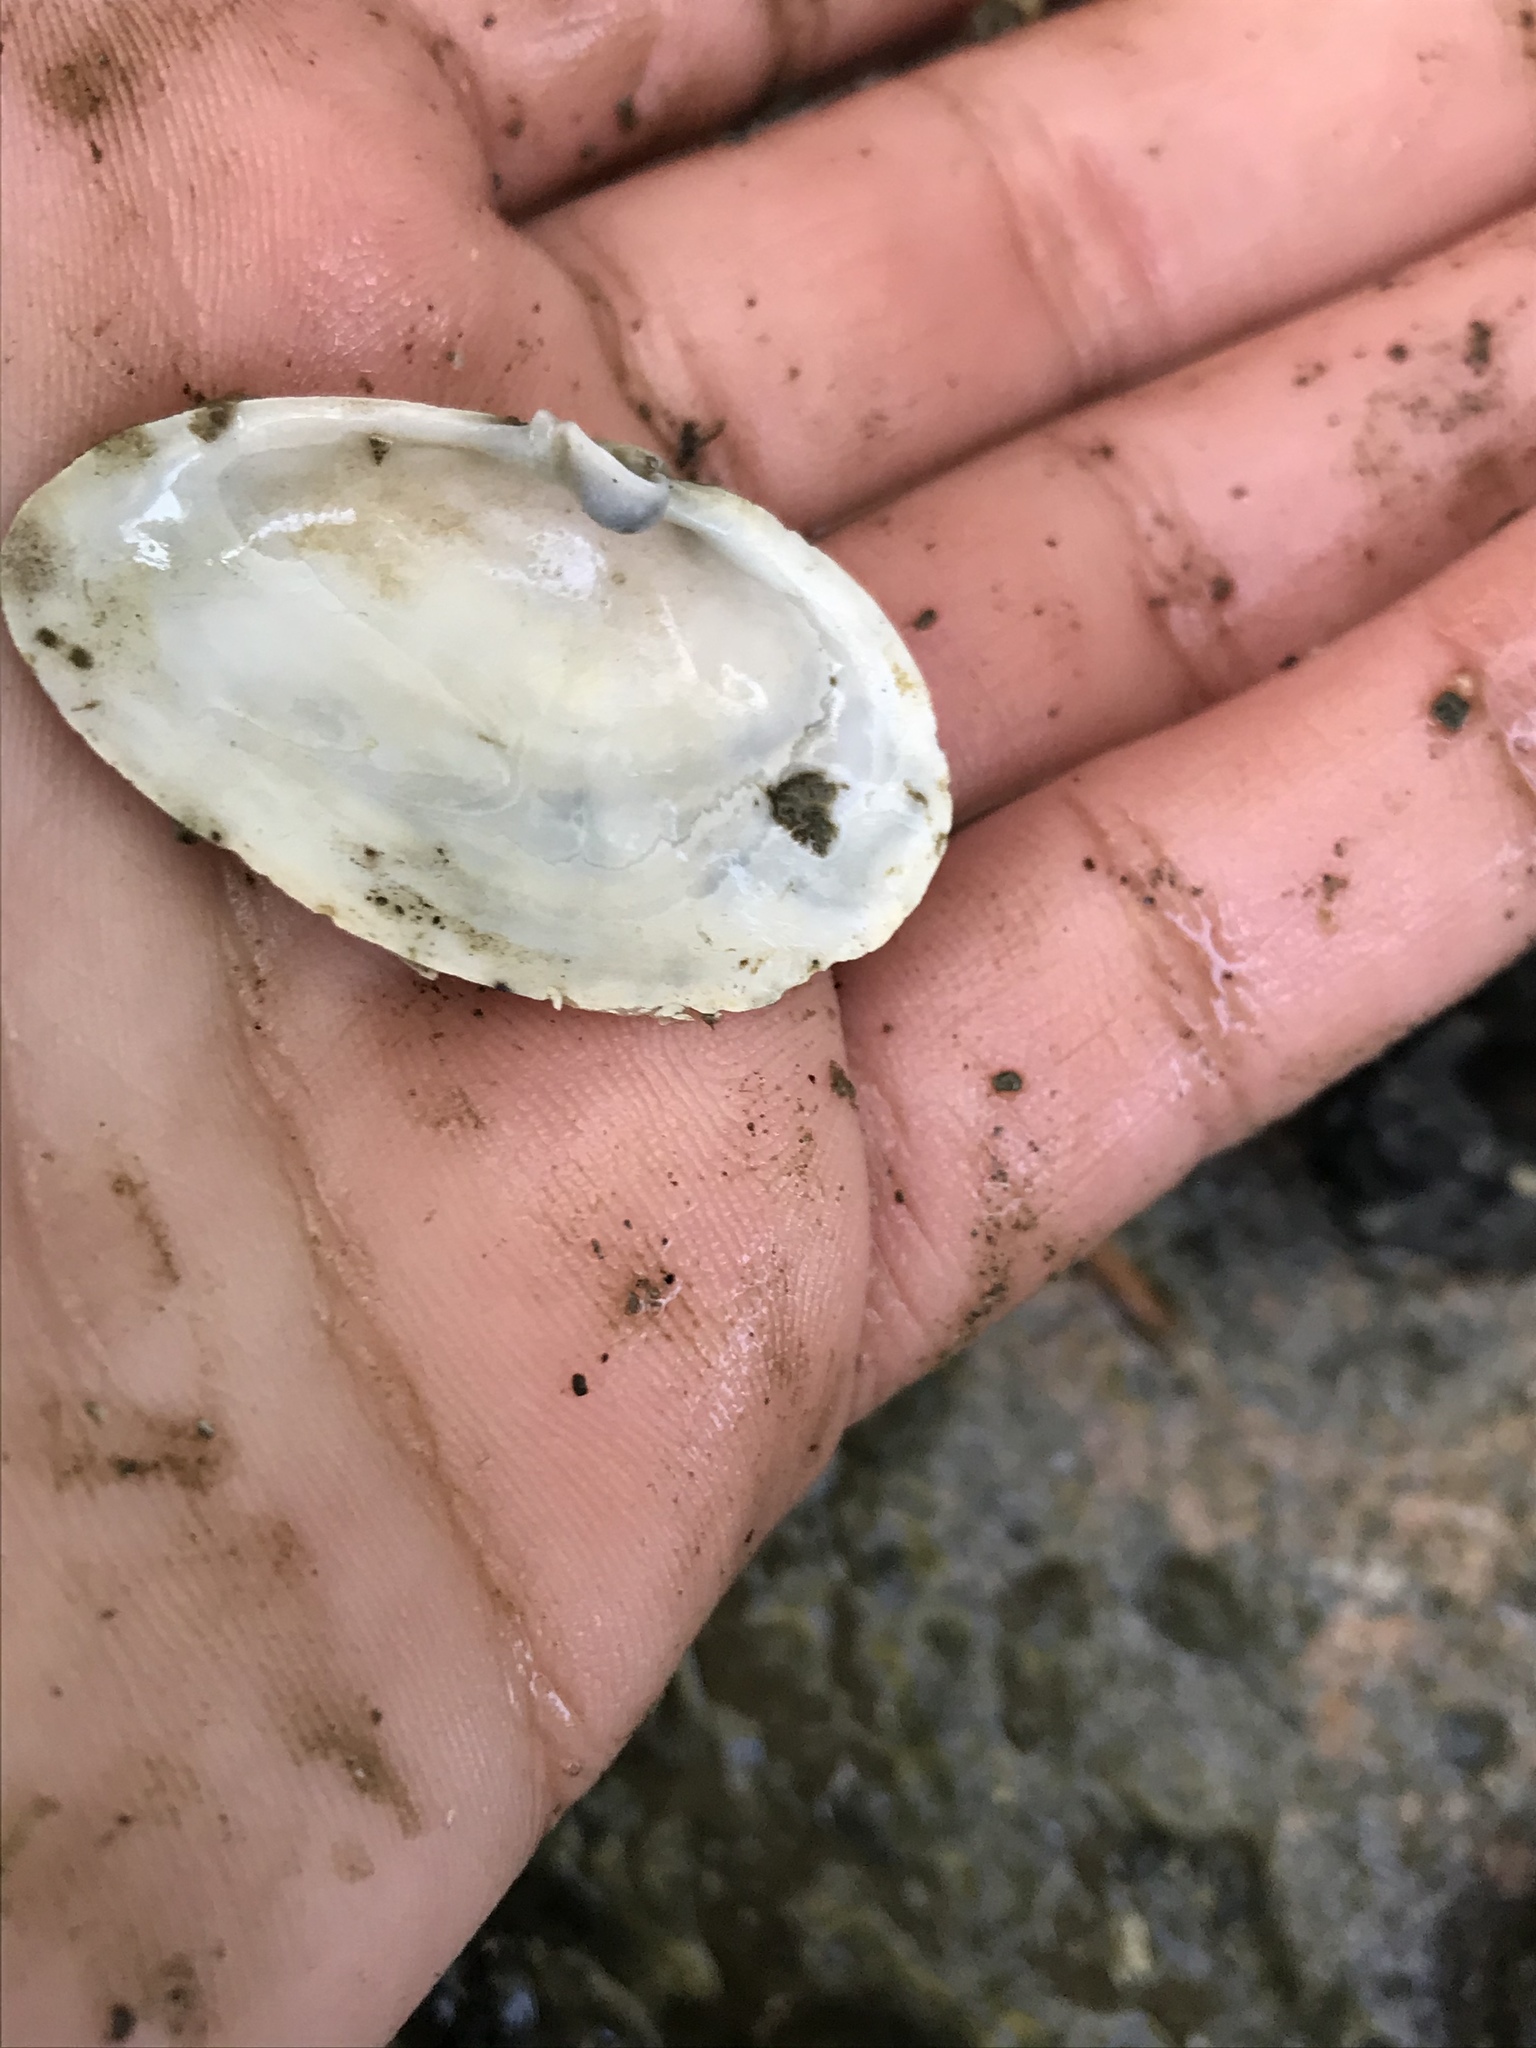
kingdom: Animalia
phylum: Mollusca
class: Bivalvia
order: Myida
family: Myidae
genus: Mya
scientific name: Mya arenaria
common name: Soft-shelled clam
